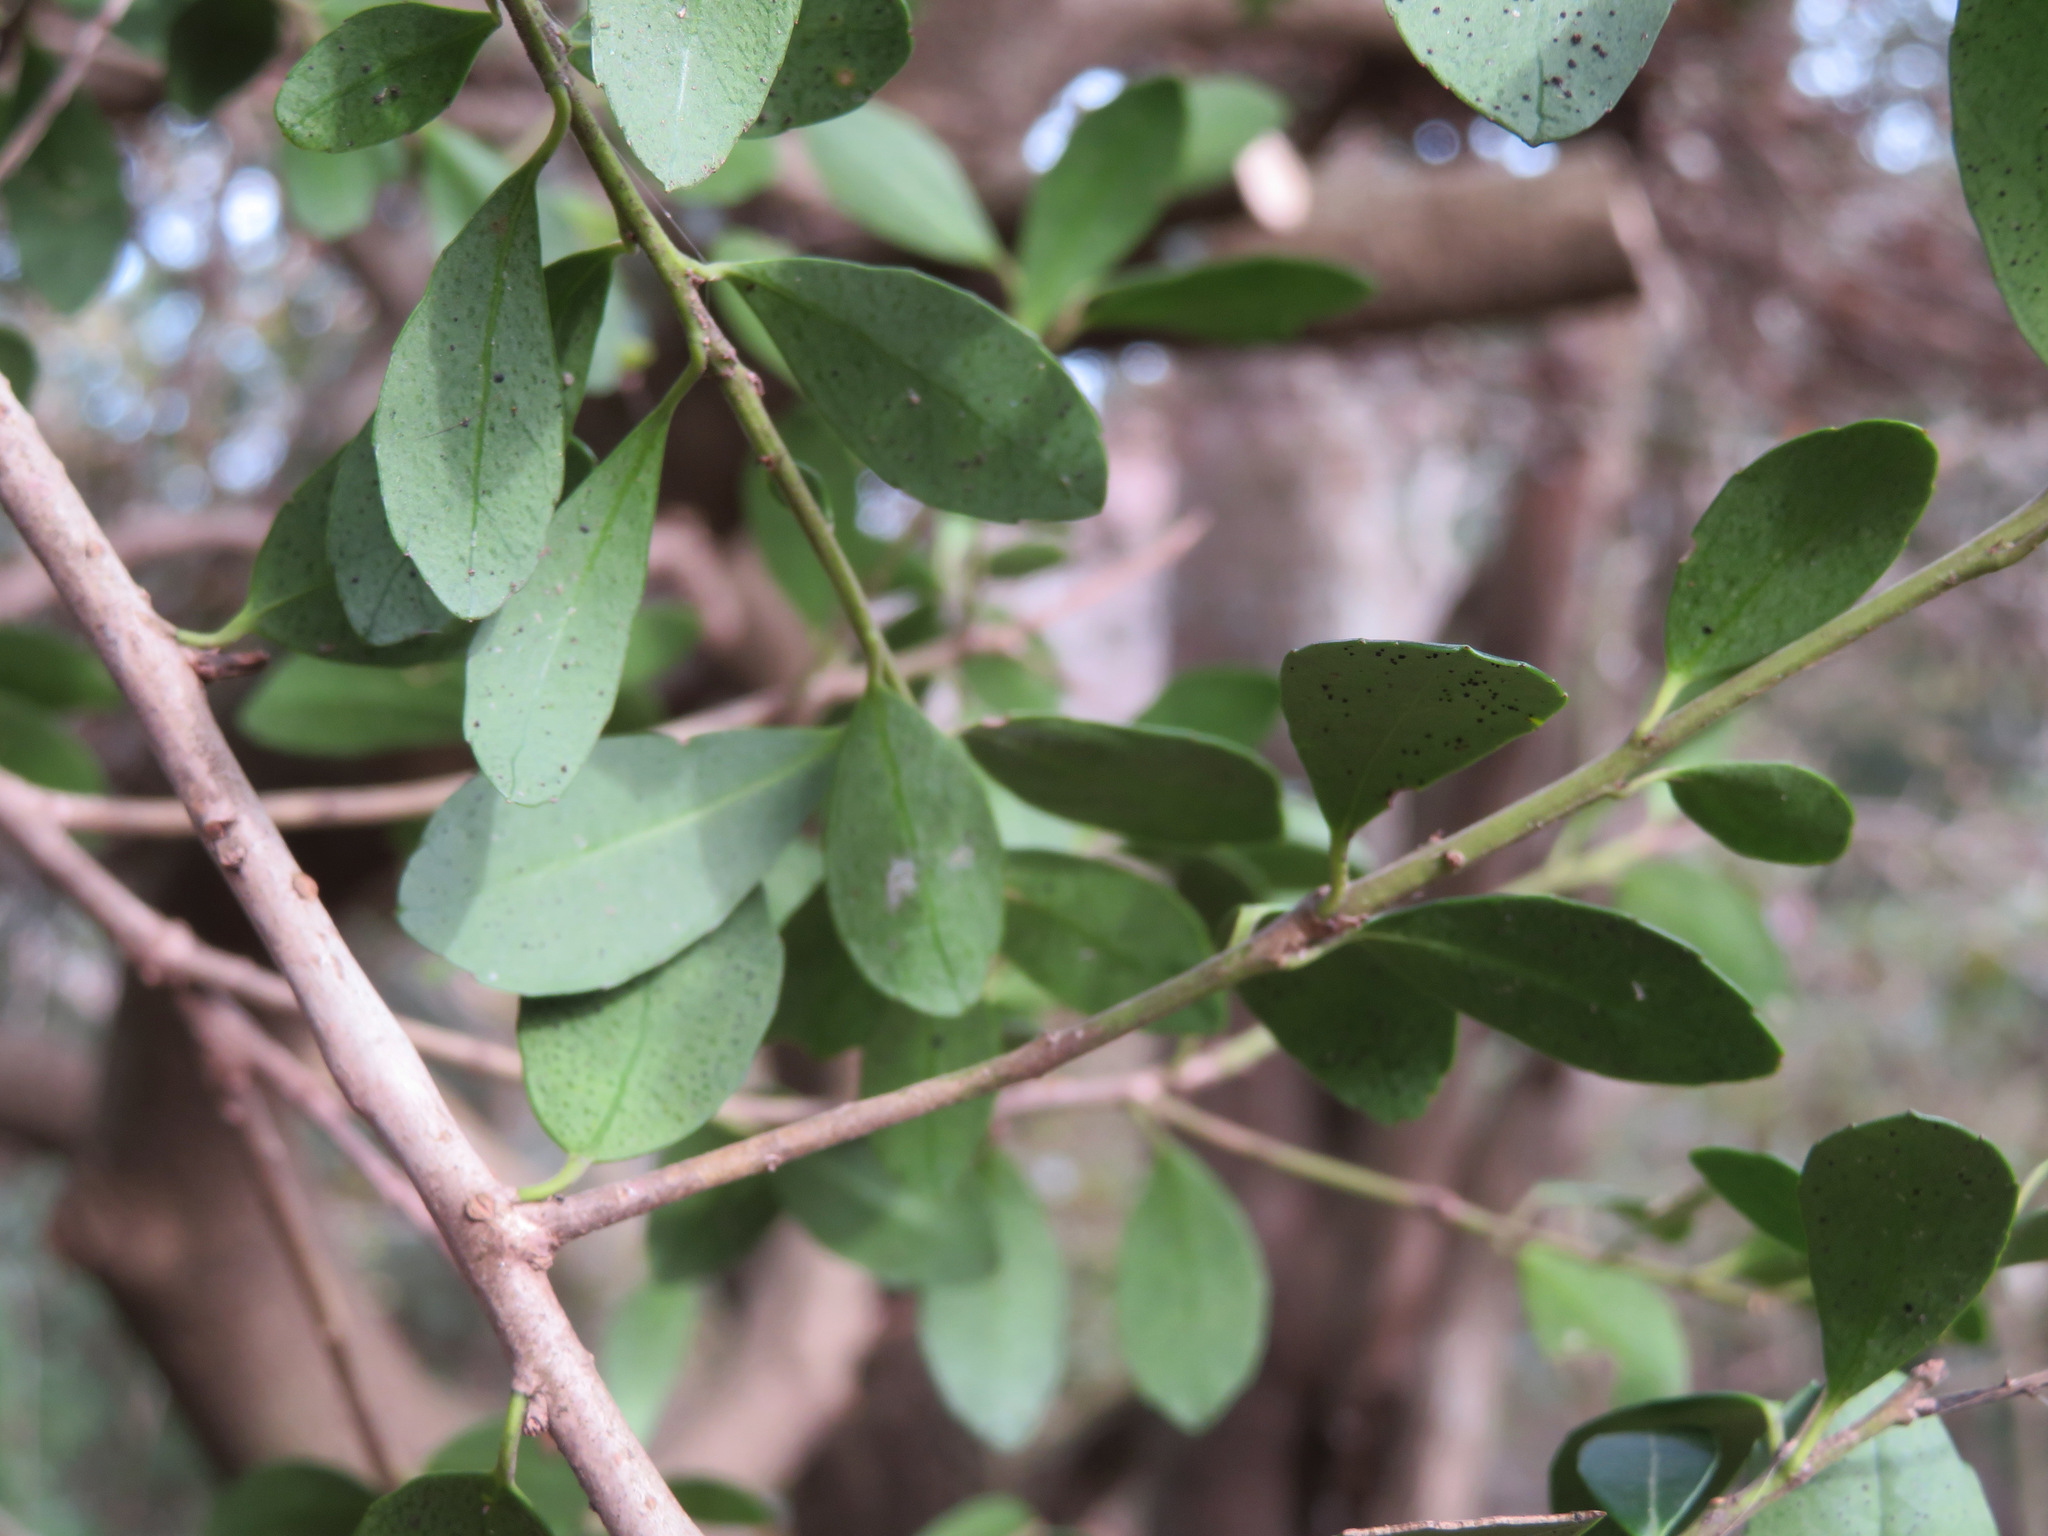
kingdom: Plantae
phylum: Tracheophyta
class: Magnoliopsida
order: Aquifoliales
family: Aquifoliaceae
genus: Ilex
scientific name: Ilex crenata
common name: Japanese holly
